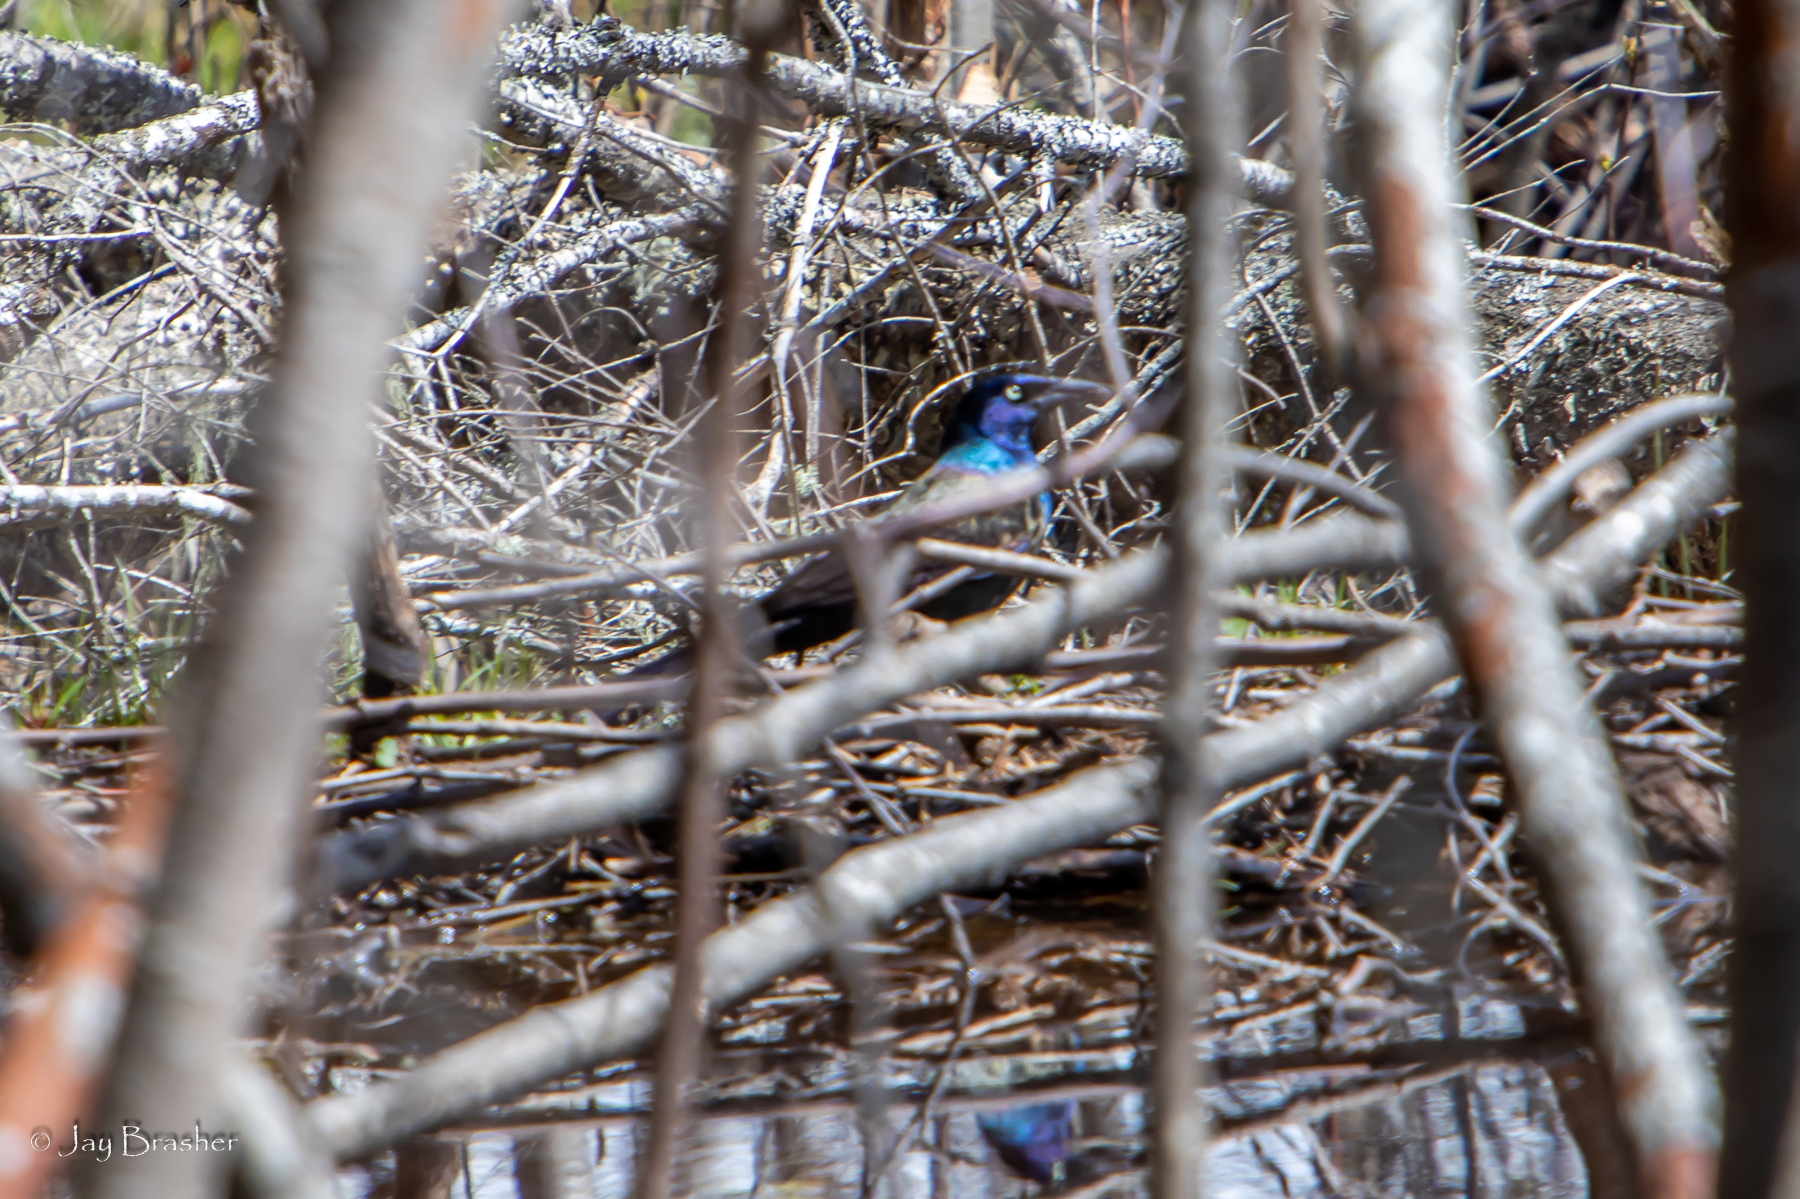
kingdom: Animalia
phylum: Chordata
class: Aves
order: Passeriformes
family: Icteridae
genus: Quiscalus
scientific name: Quiscalus quiscula
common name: Common grackle
